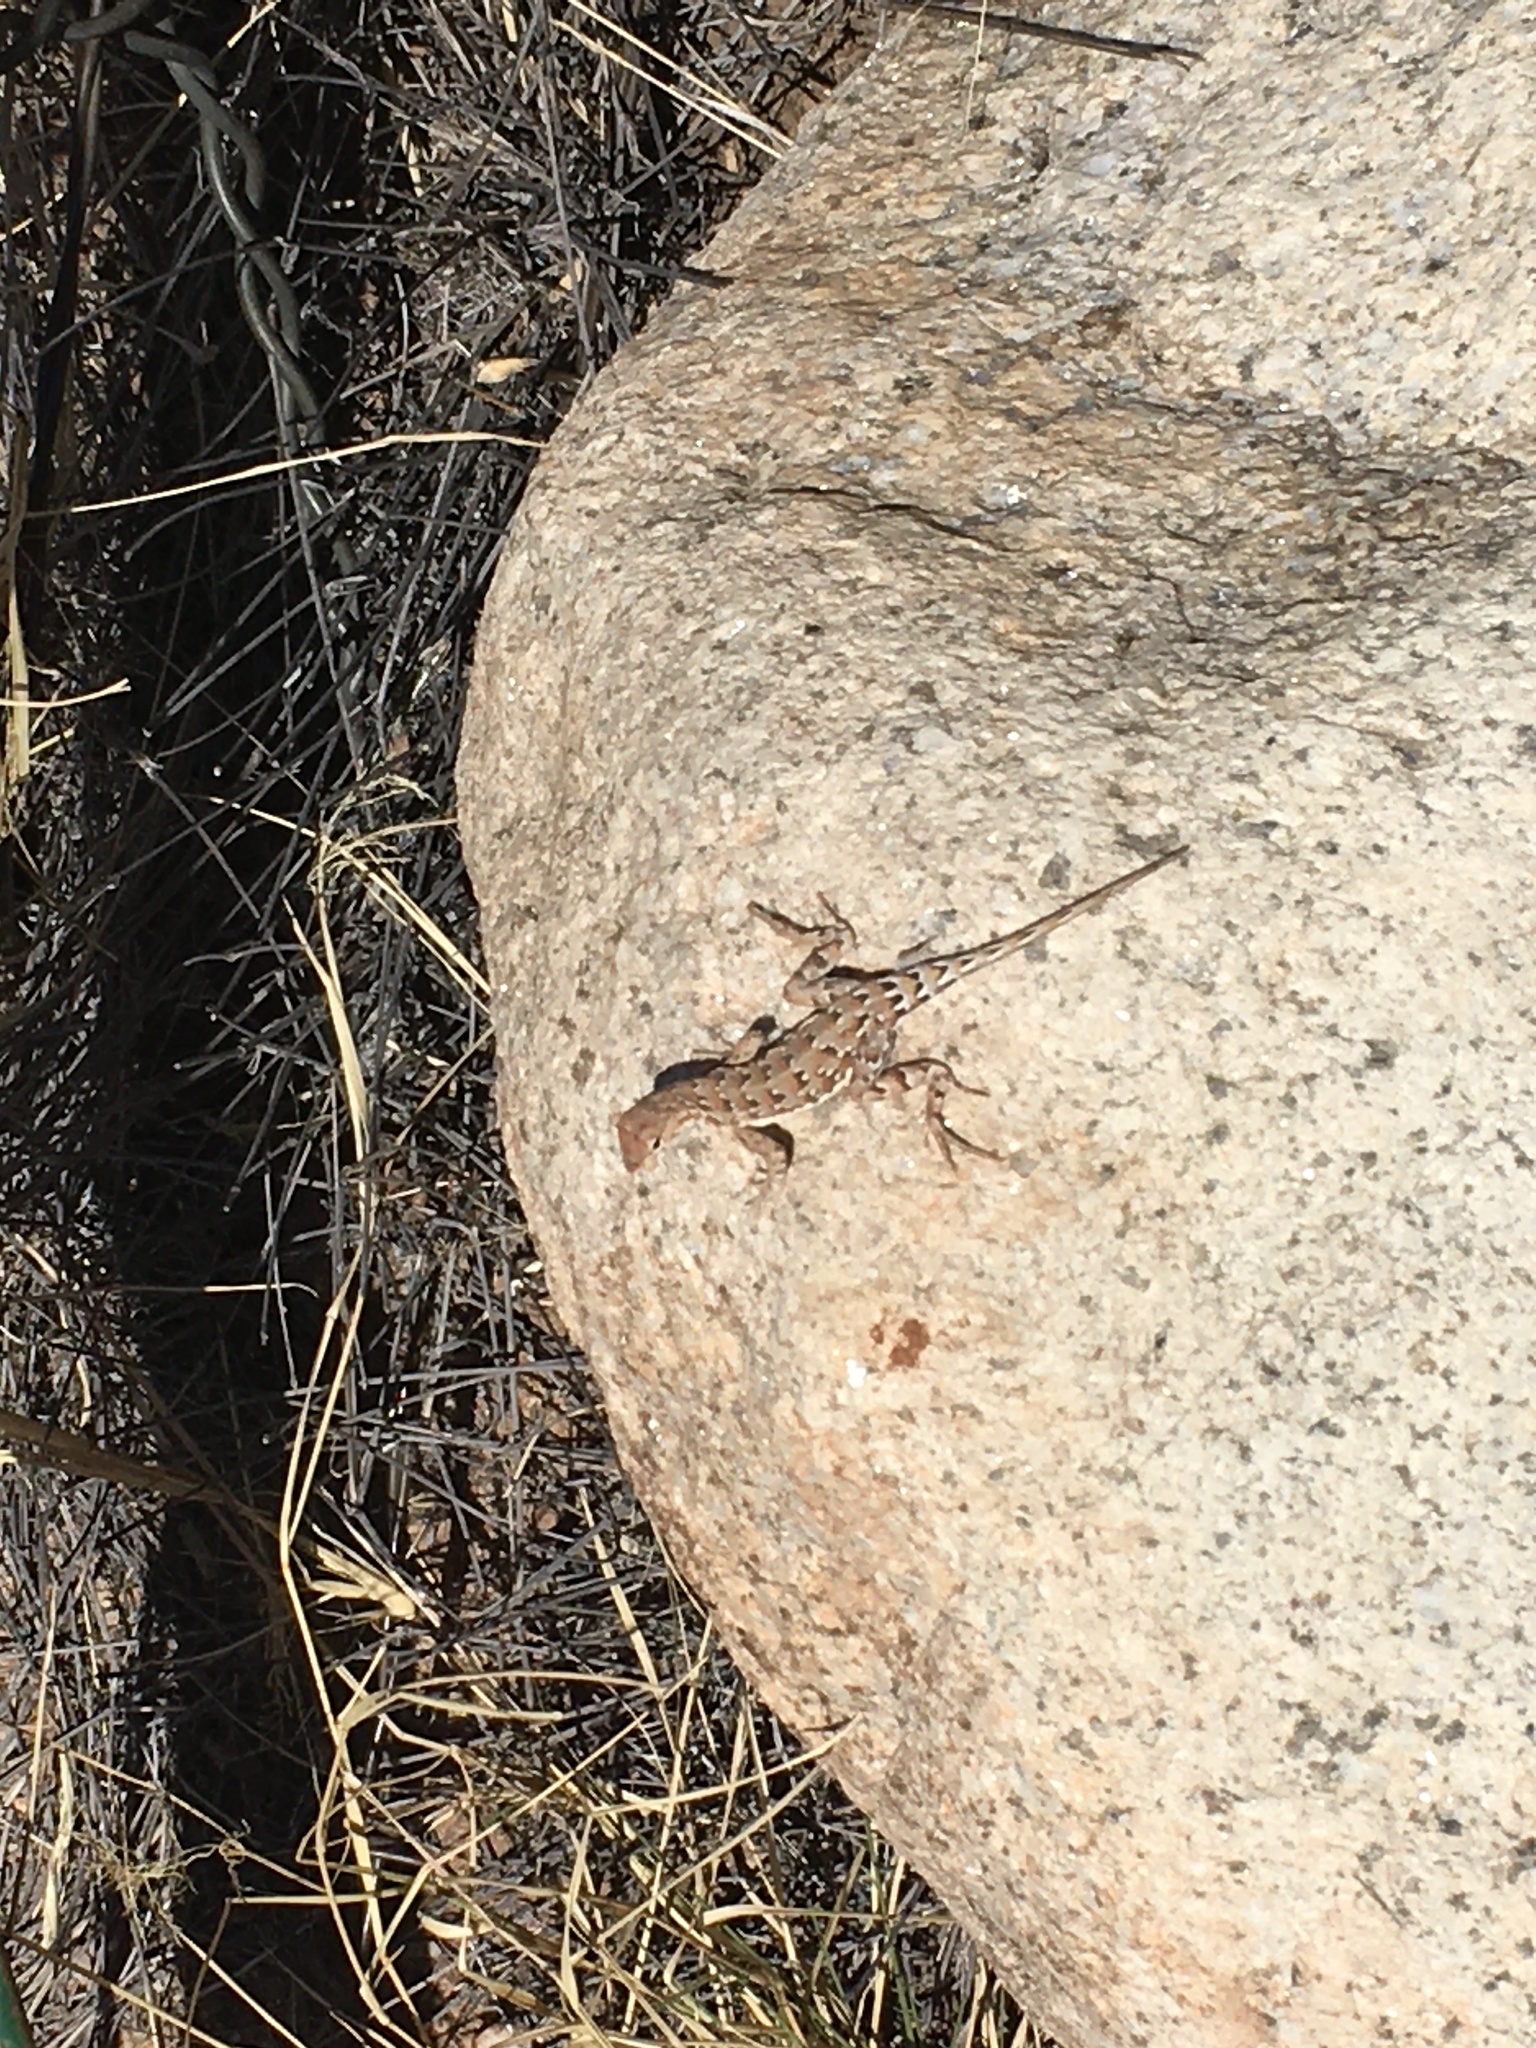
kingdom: Animalia
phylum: Chordata
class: Squamata
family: Phrynosomatidae
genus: Holbrookia
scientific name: Holbrookia elegans
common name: Elegant earless lizard
